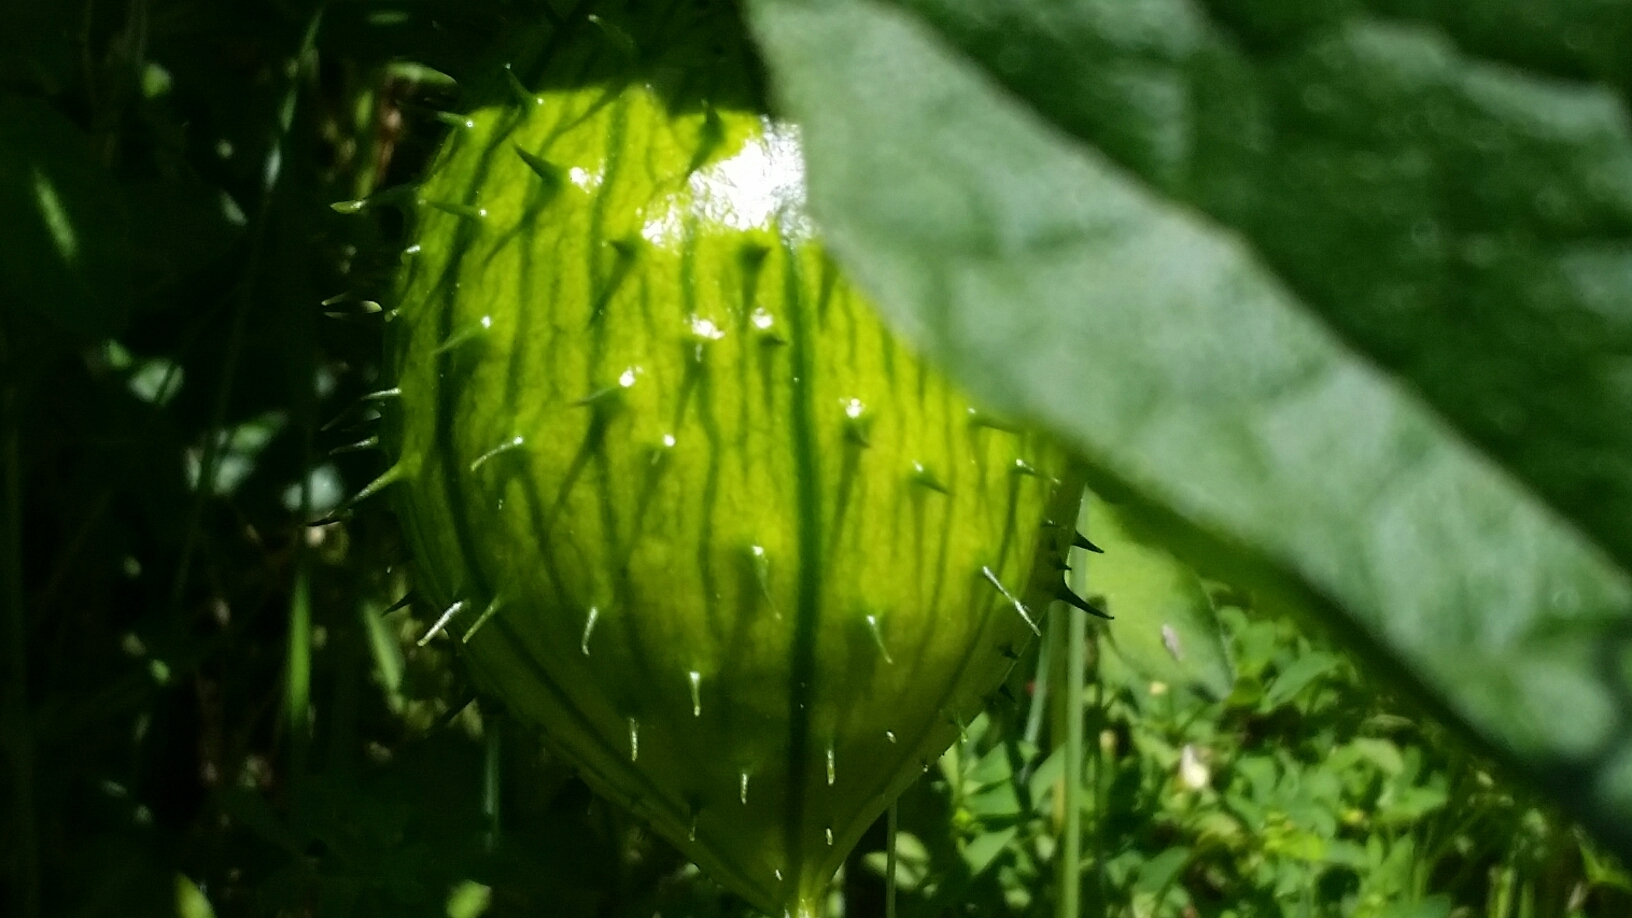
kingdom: Plantae
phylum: Tracheophyta
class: Magnoliopsida
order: Cucurbitales
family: Cucurbitaceae
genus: Marah
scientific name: Marah oregana
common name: Coastal manroot
